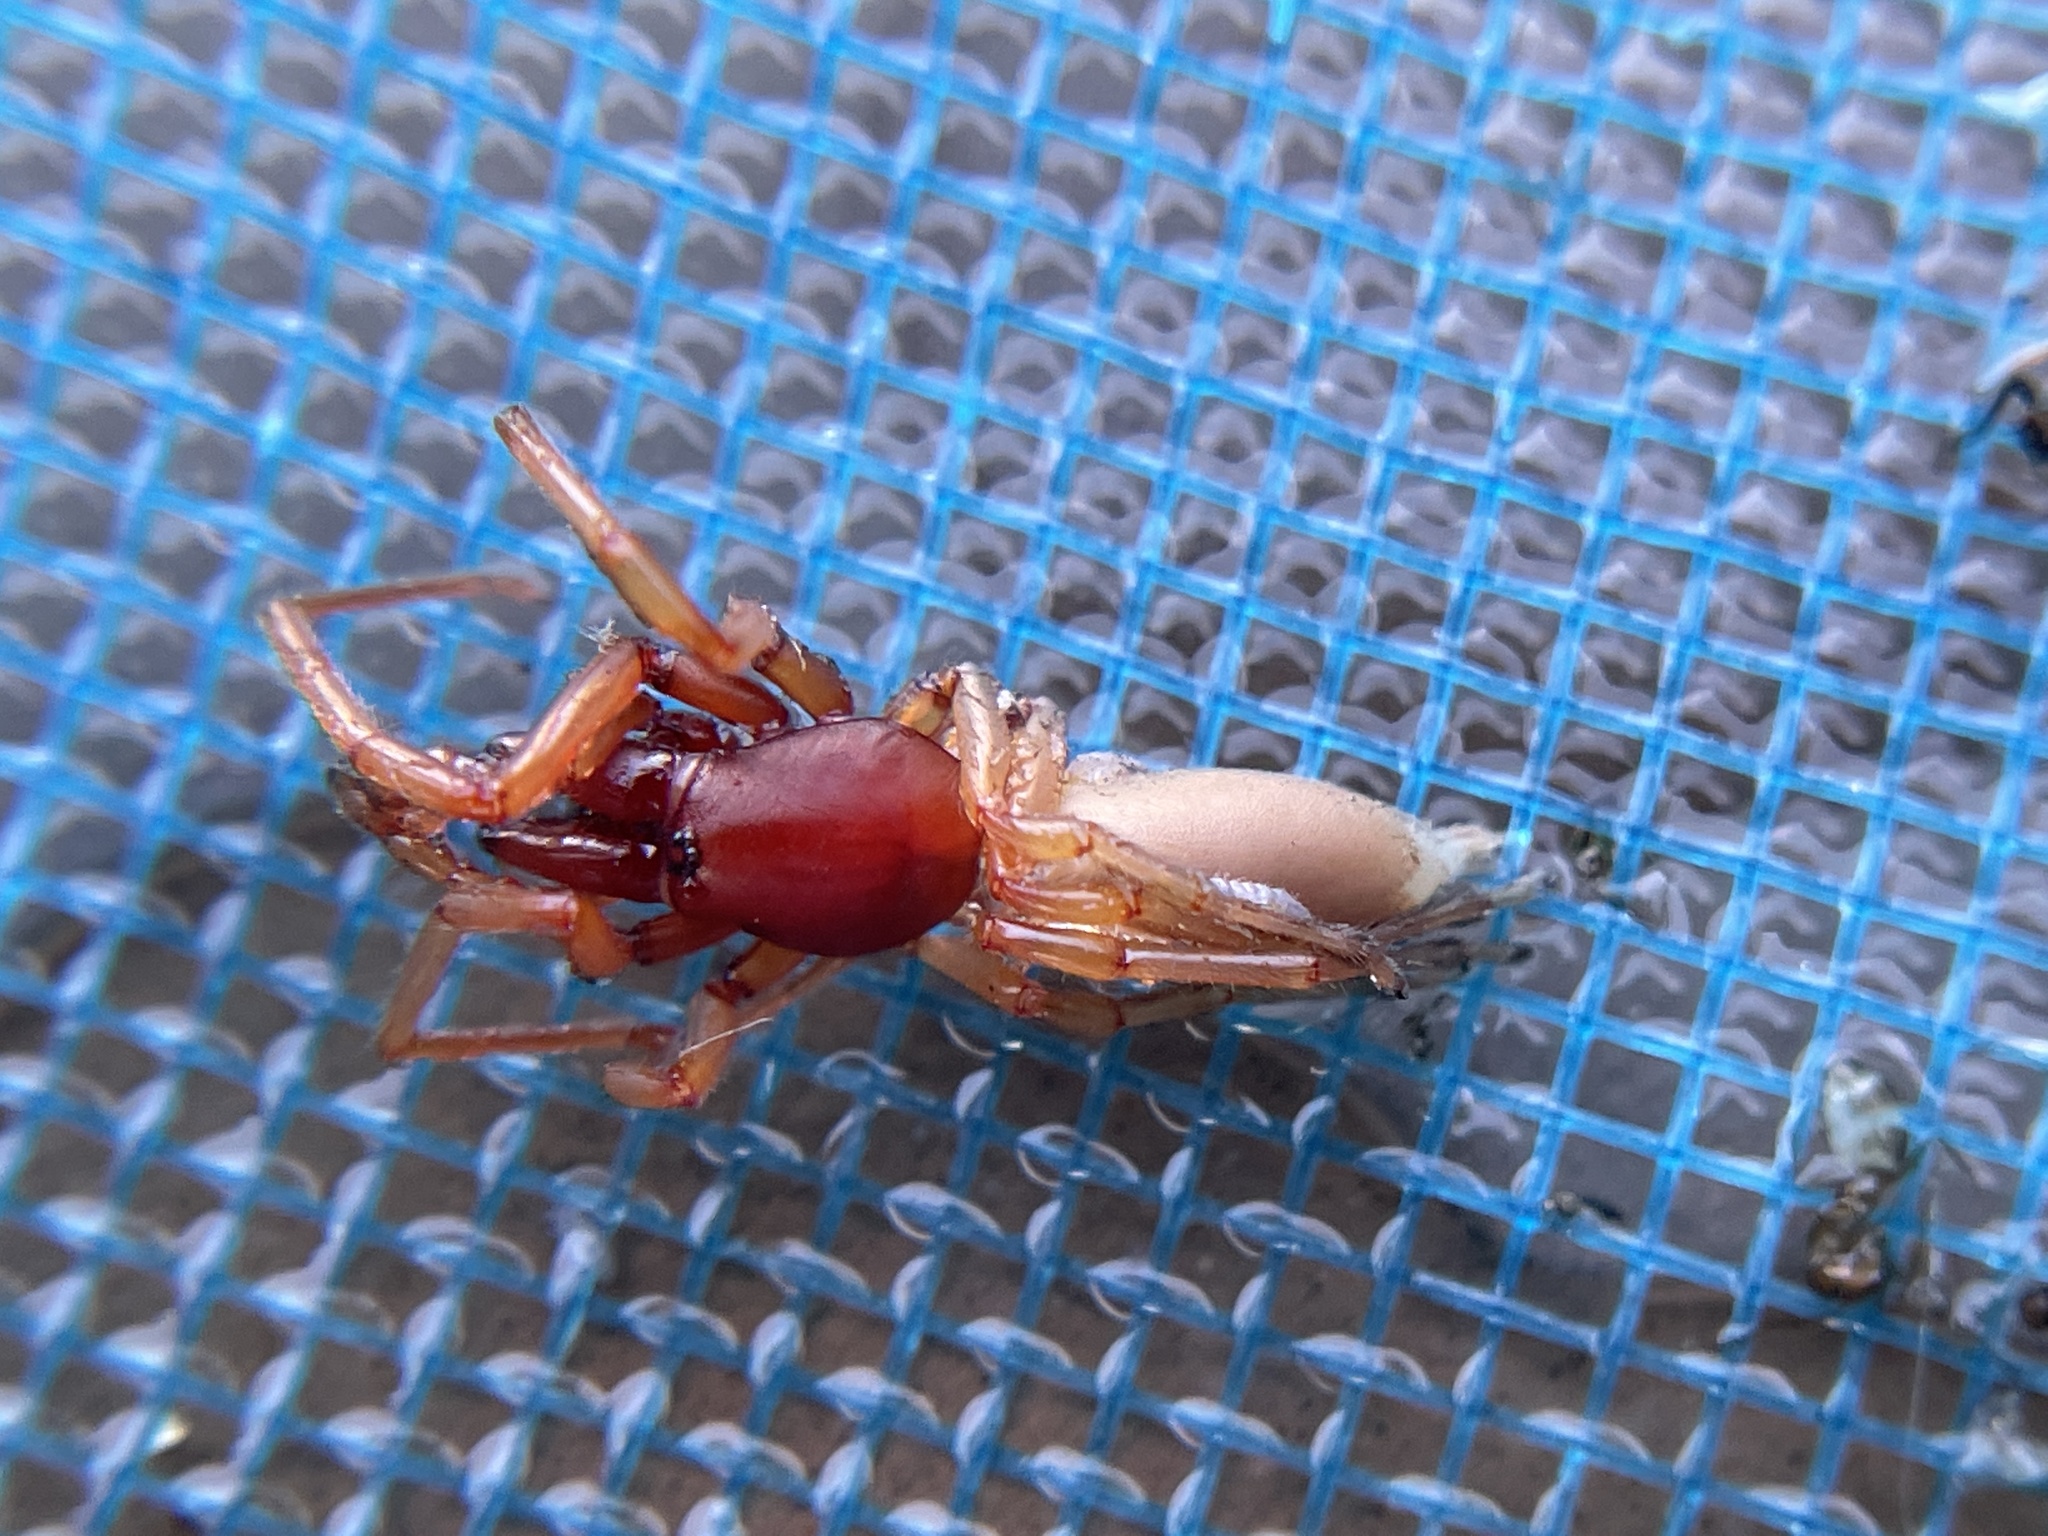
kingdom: Animalia
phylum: Arthropoda
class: Arachnida
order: Araneae
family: Dysderidae
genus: Dysdera
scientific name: Dysdera crocata
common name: Woodlouse spider
